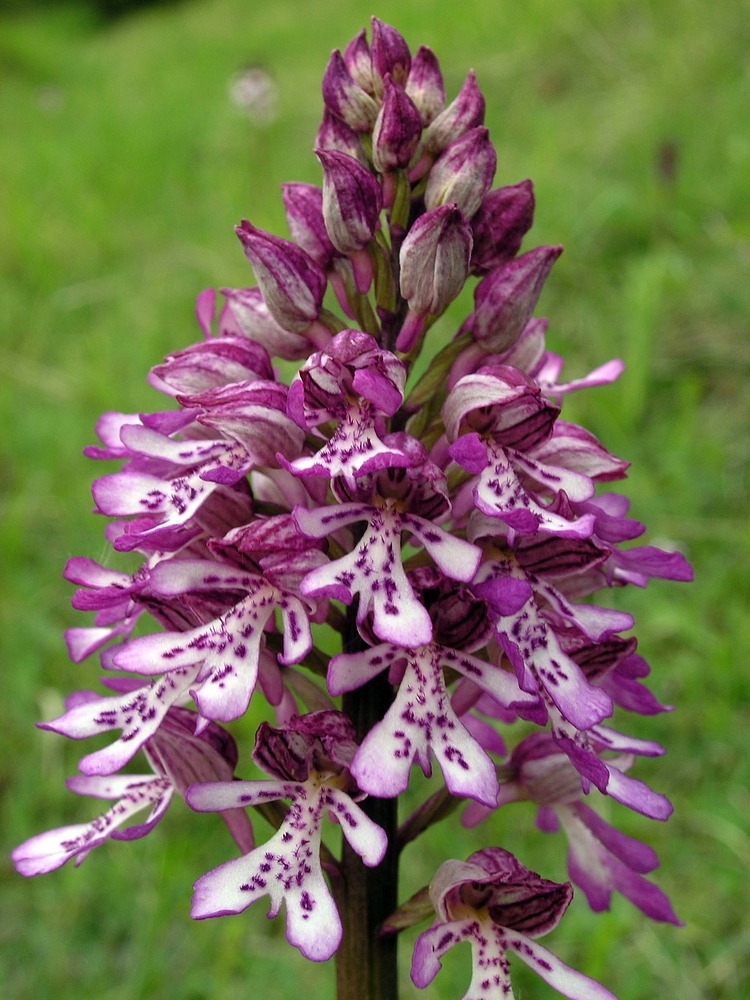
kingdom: Plantae
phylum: Tracheophyta
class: Liliopsida
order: Asparagales
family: Orchidaceae
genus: Orchis
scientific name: Orchis hybrida
